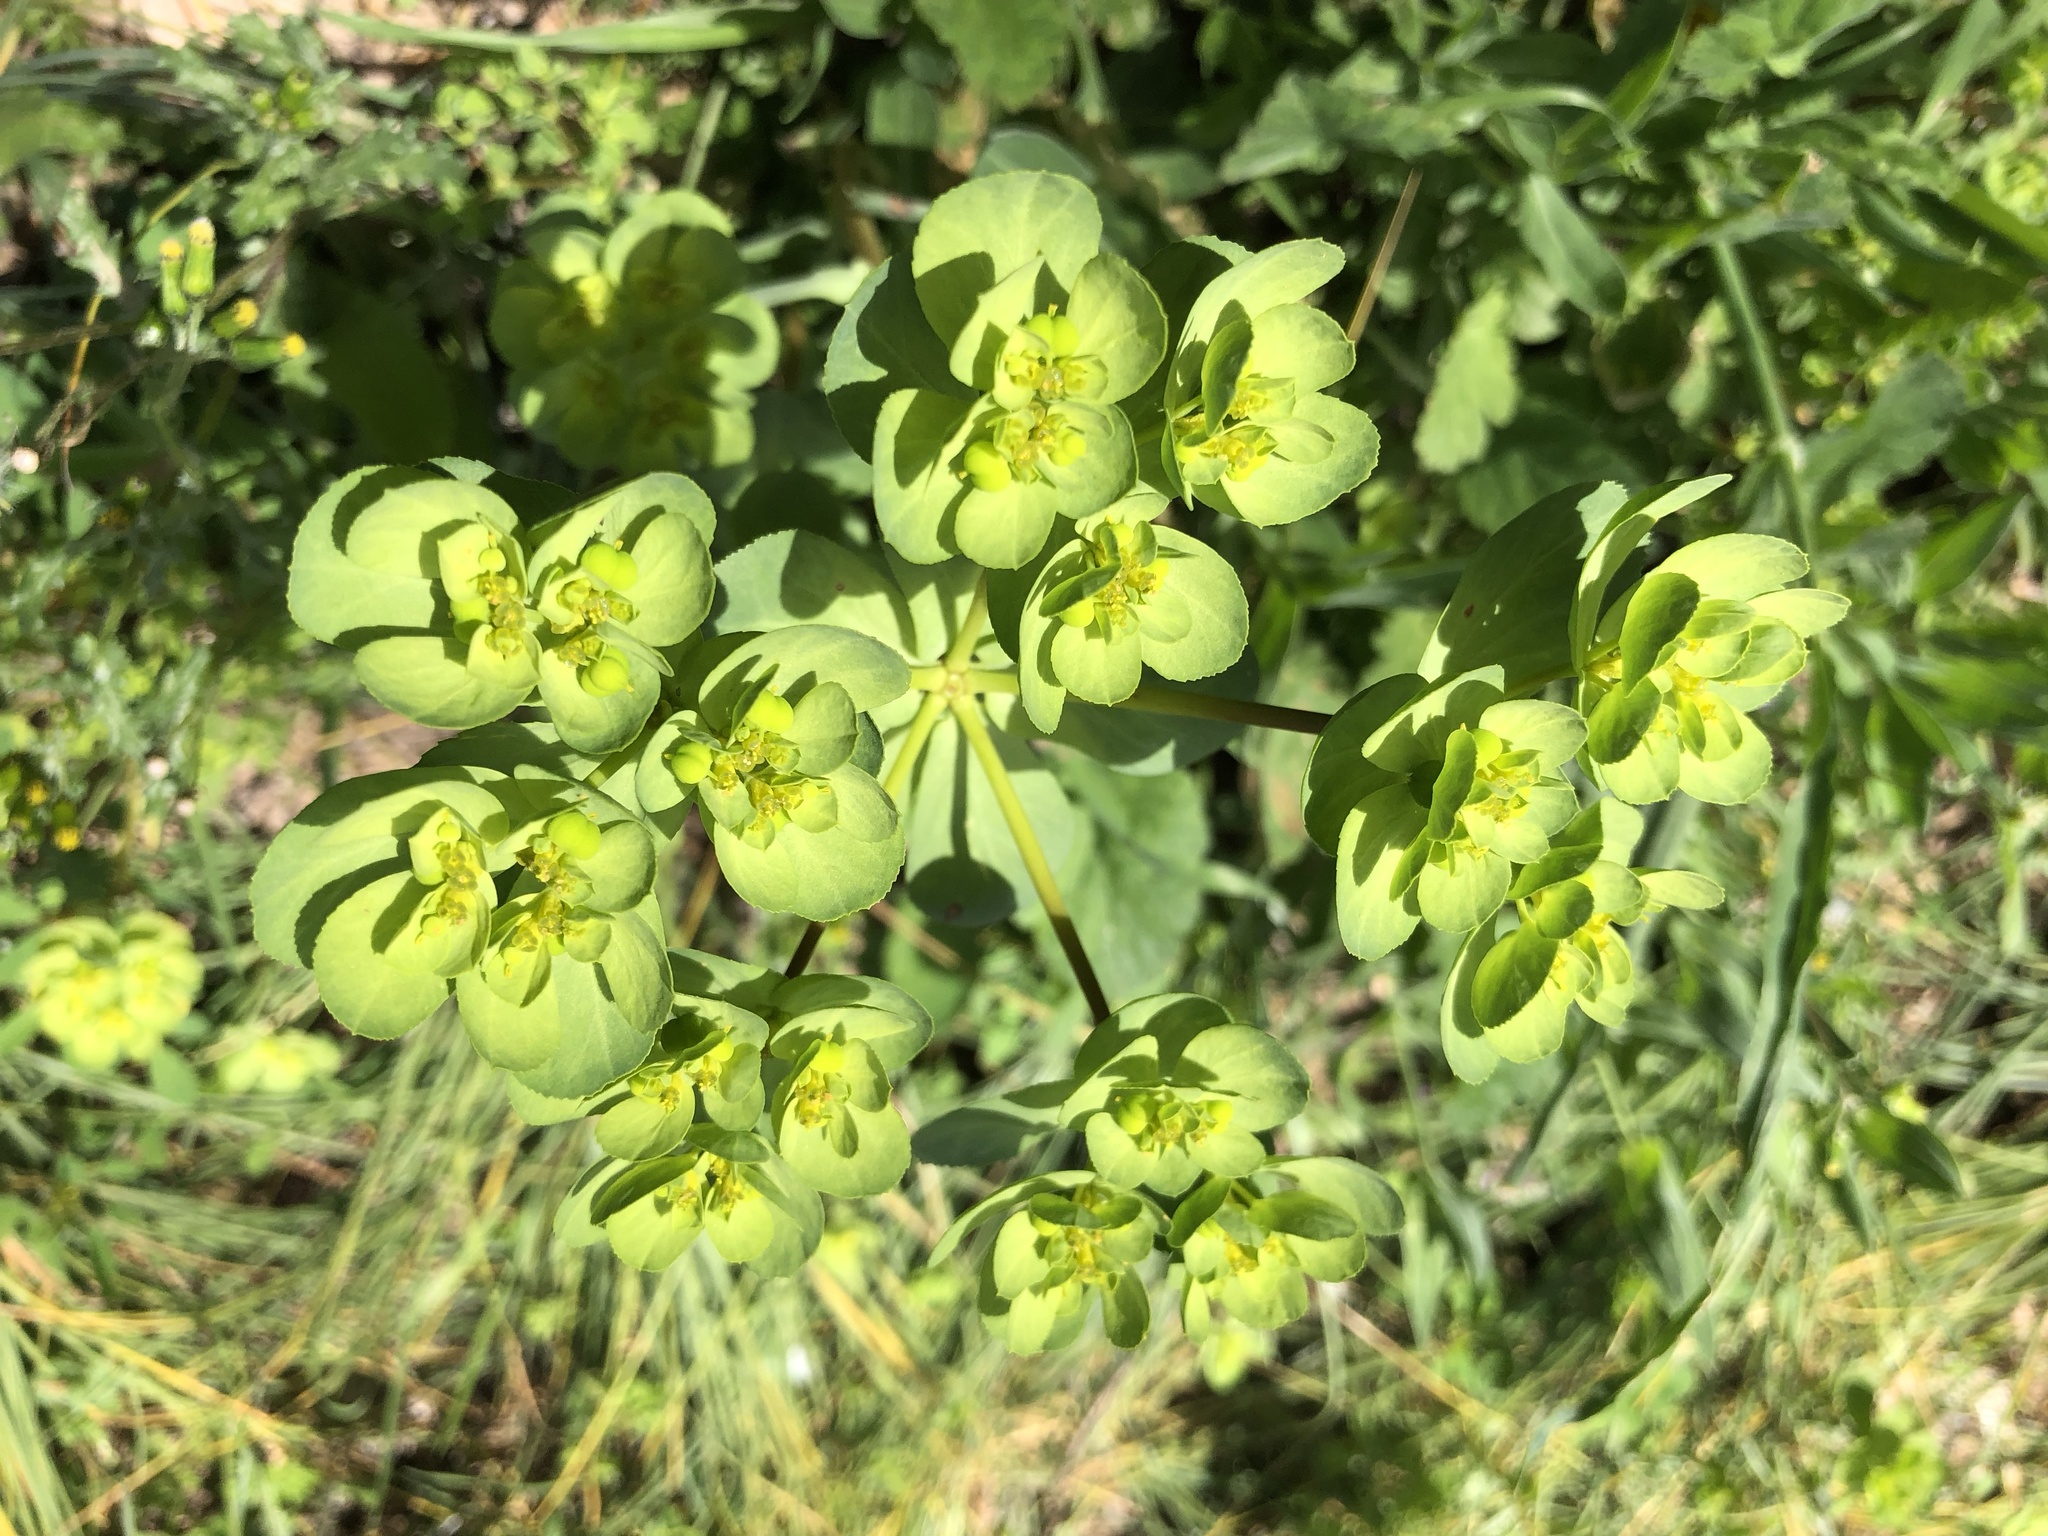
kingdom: Plantae
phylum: Tracheophyta
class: Magnoliopsida
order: Malpighiales
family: Euphorbiaceae
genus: Euphorbia
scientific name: Euphorbia helioscopia
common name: Sun spurge
